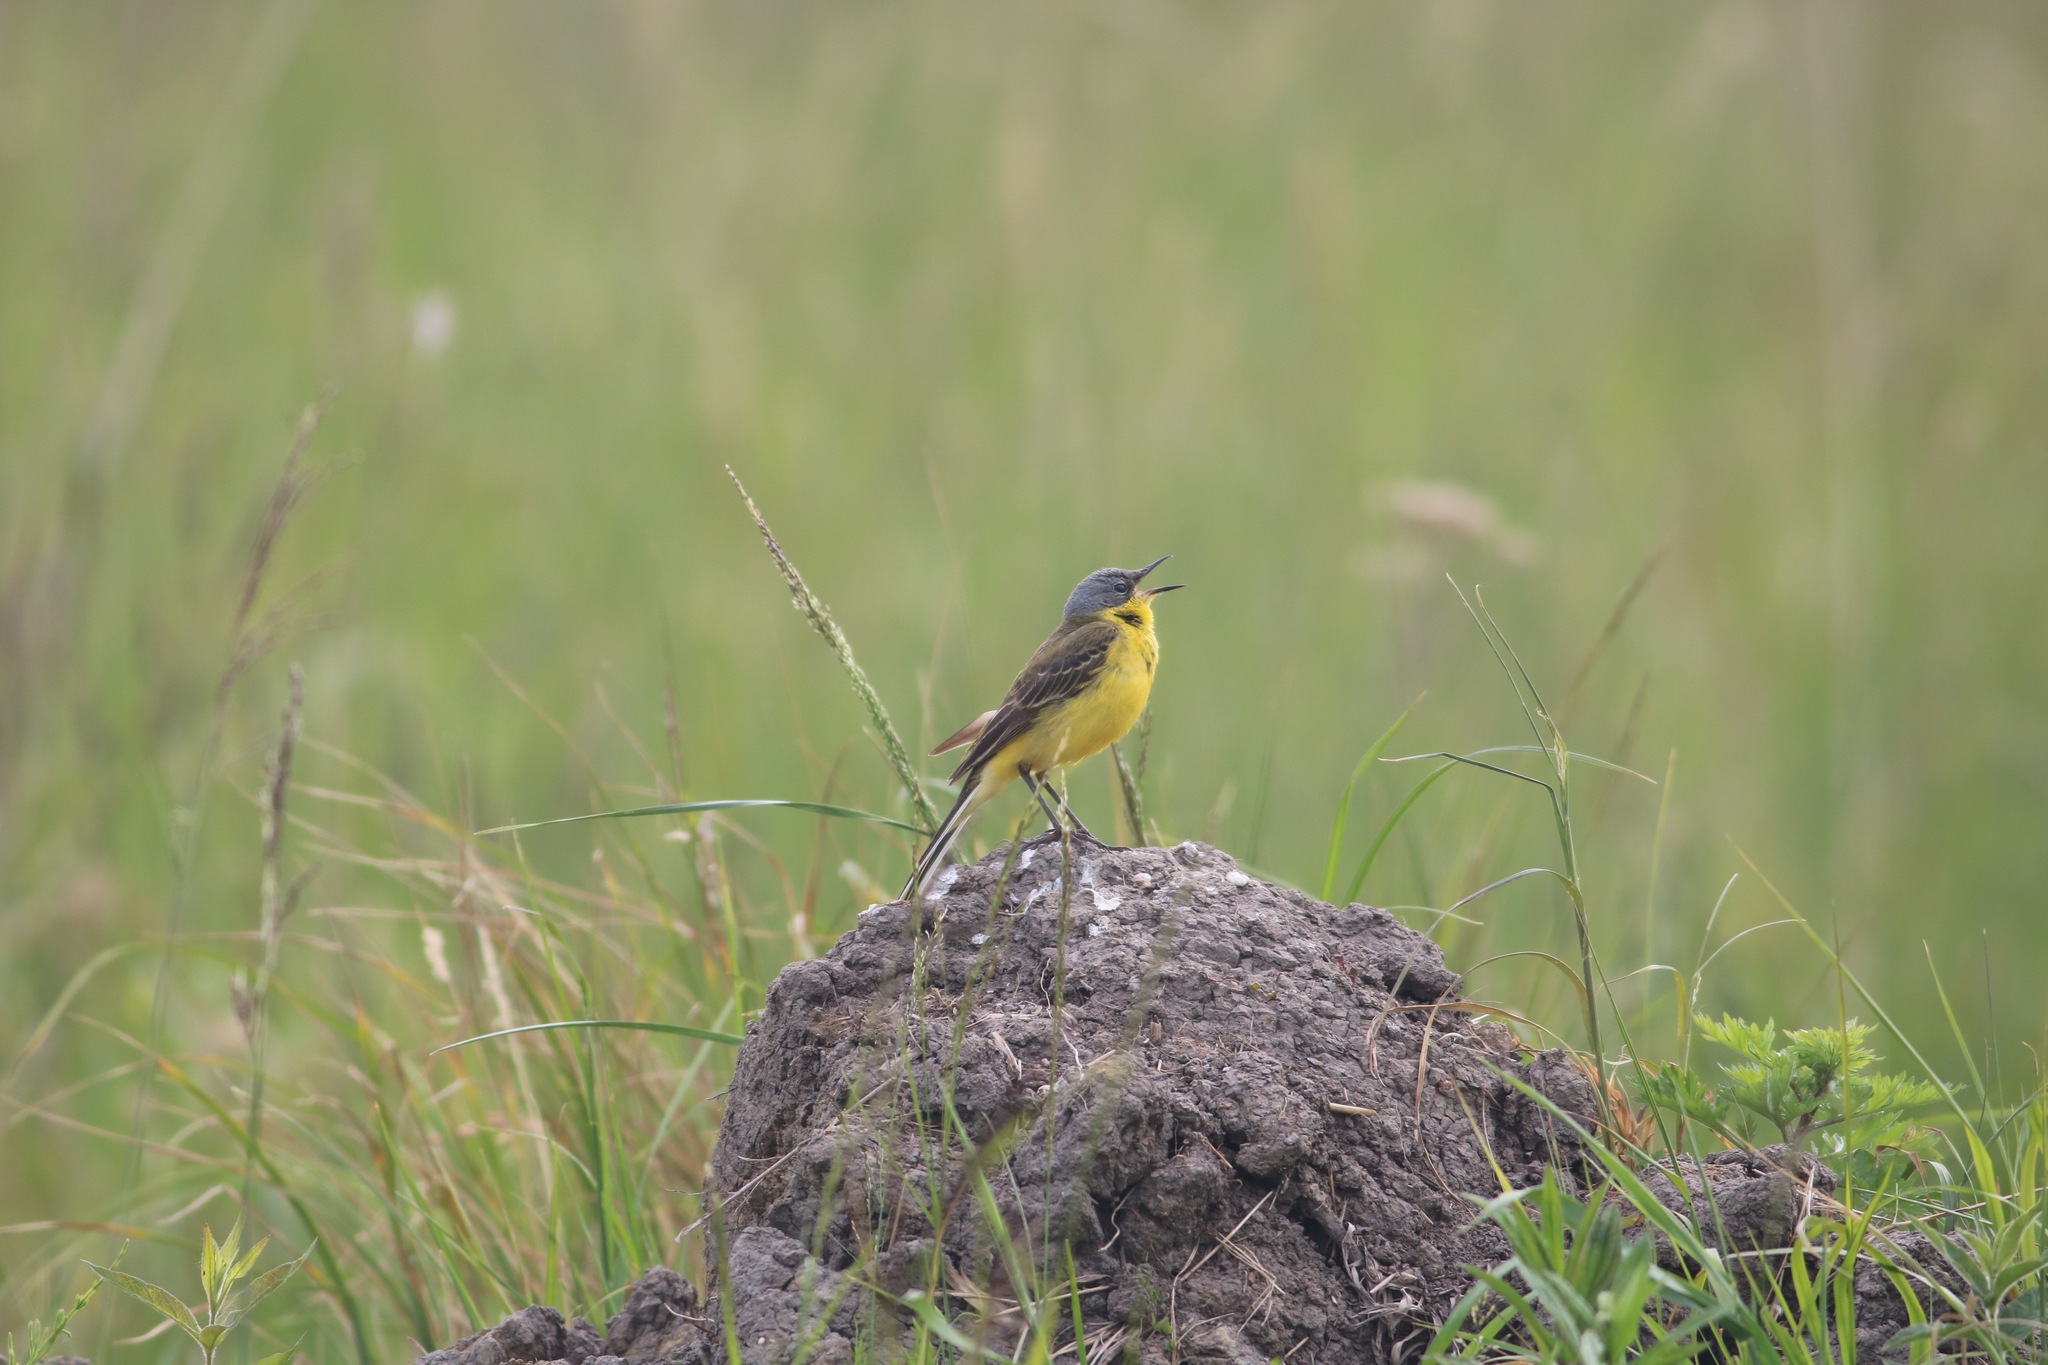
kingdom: Animalia
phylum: Chordata
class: Aves
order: Passeriformes
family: Motacillidae
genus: Motacilla
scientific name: Motacilla flava
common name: Western yellow wagtail
